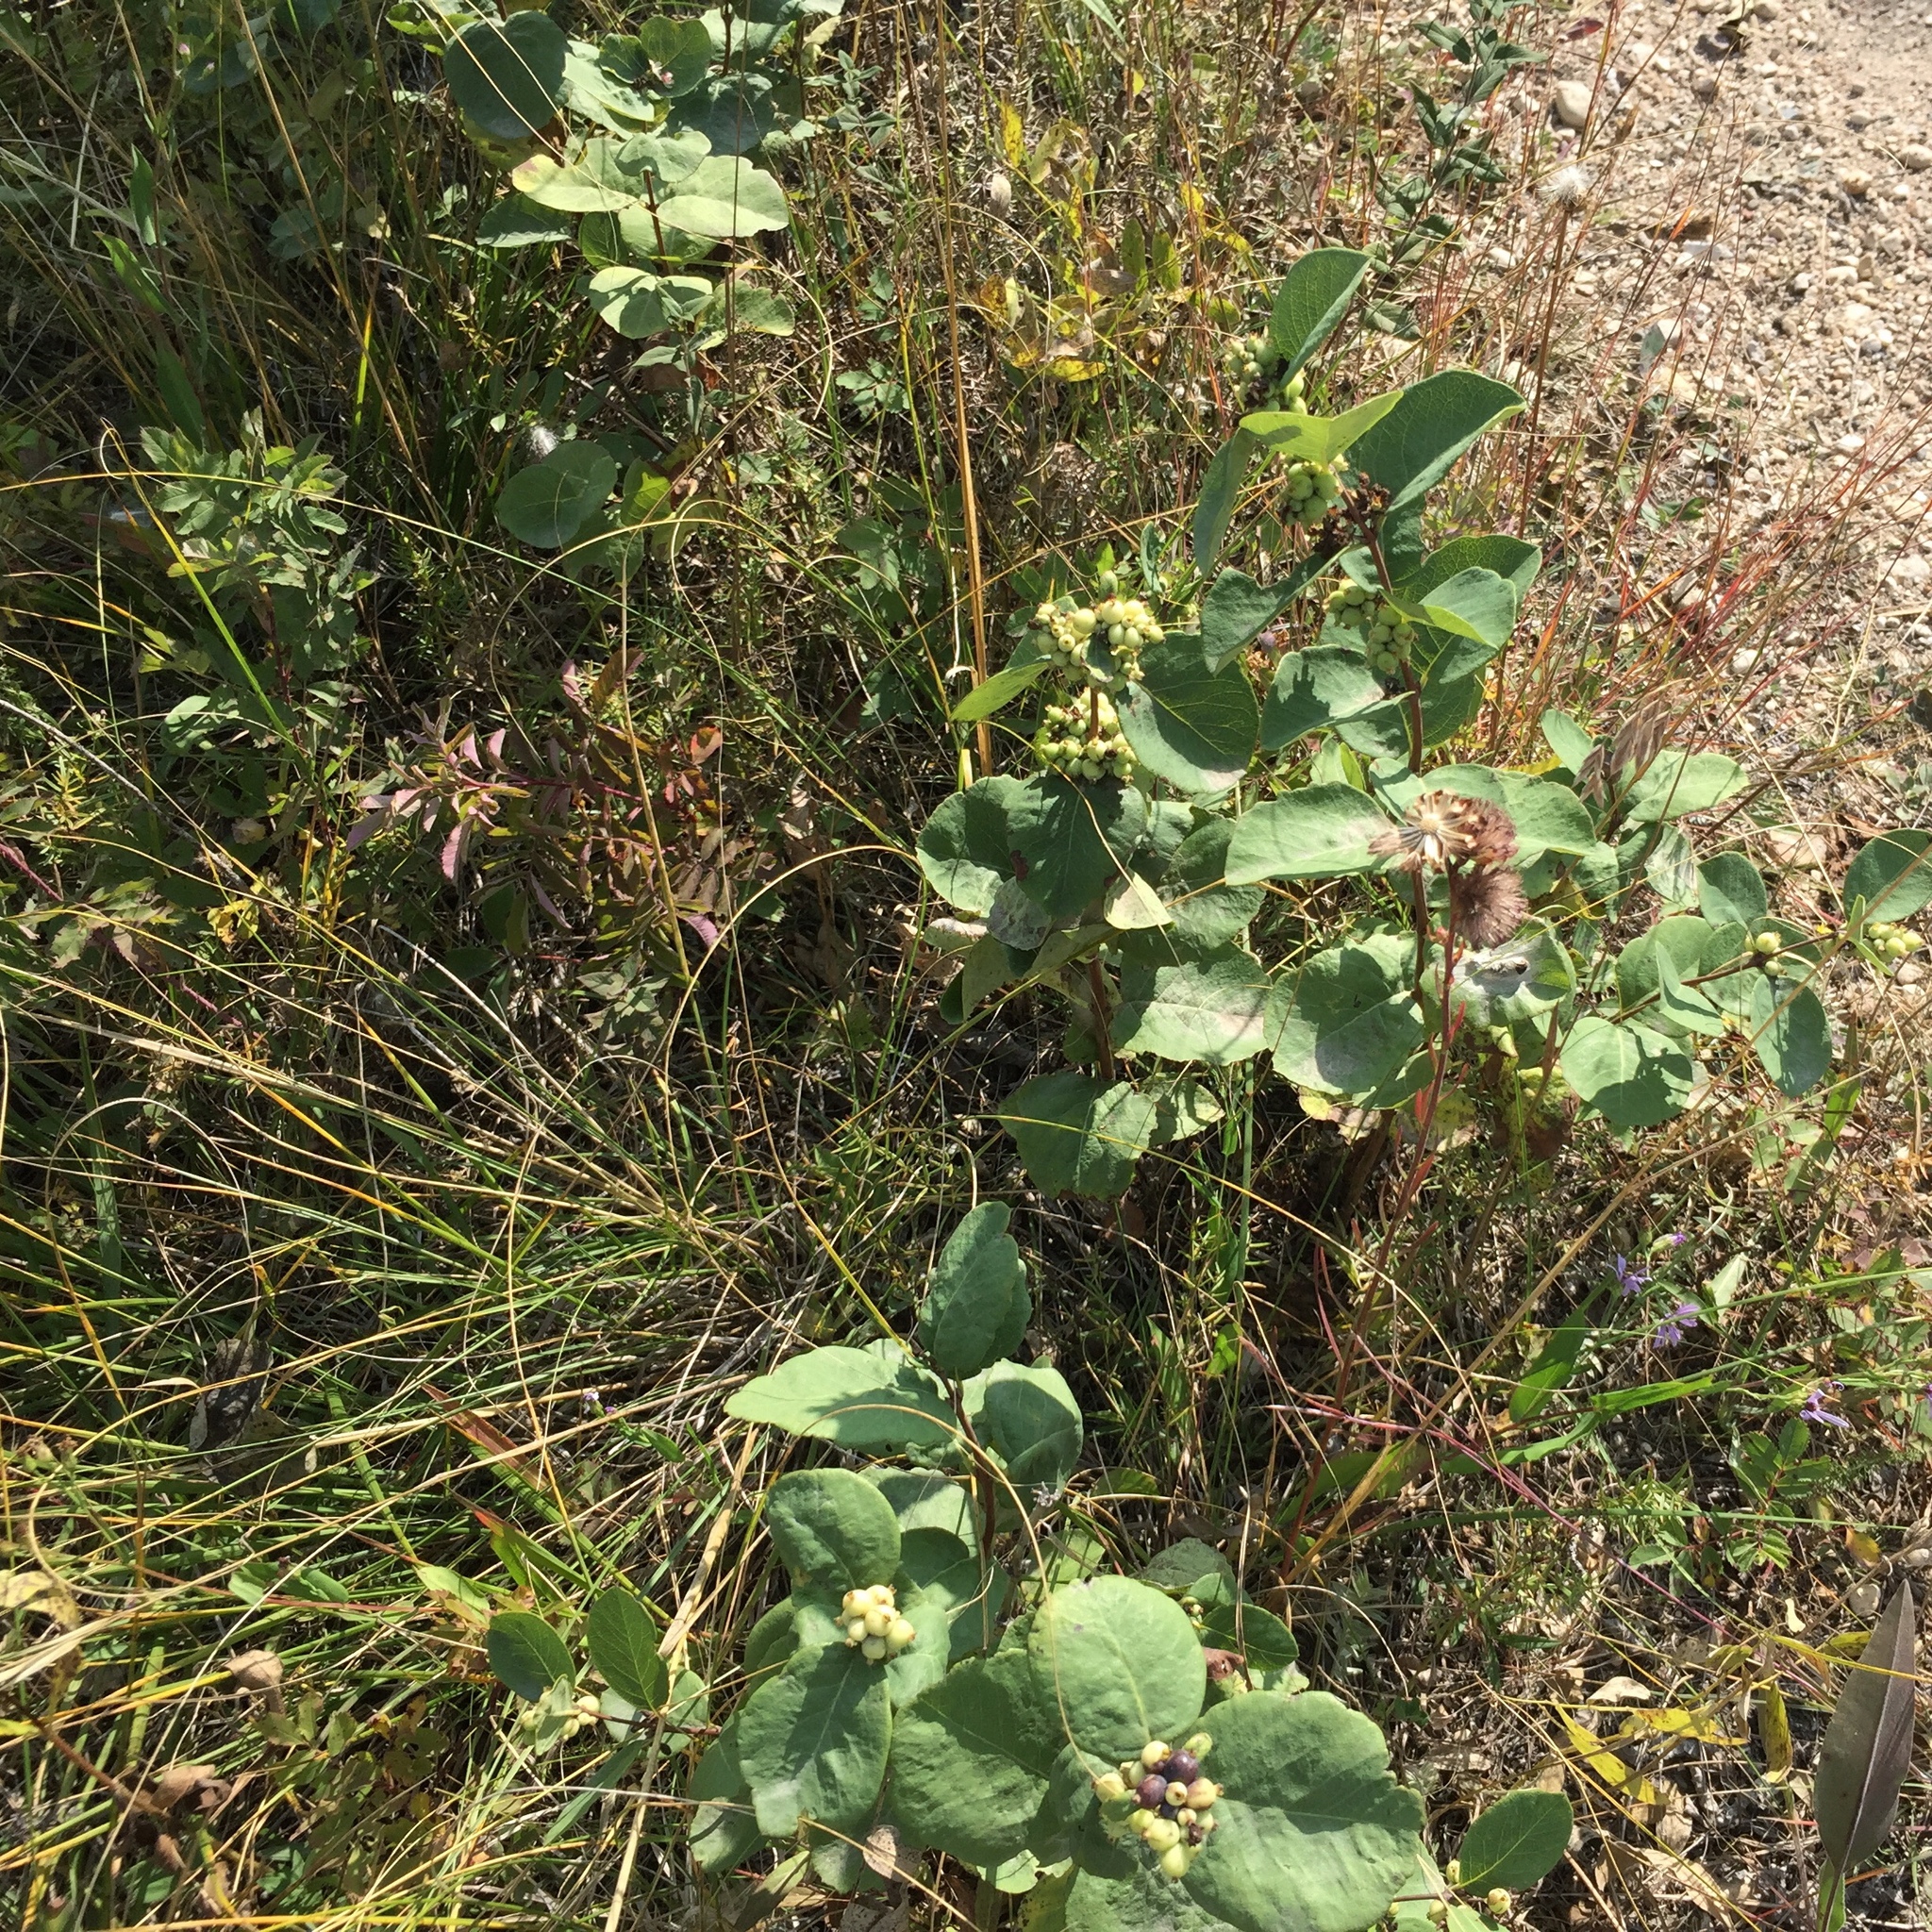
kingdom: Plantae
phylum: Tracheophyta
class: Magnoliopsida
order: Dipsacales
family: Caprifoliaceae
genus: Symphoricarpos
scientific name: Symphoricarpos occidentalis
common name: Wolfberry
